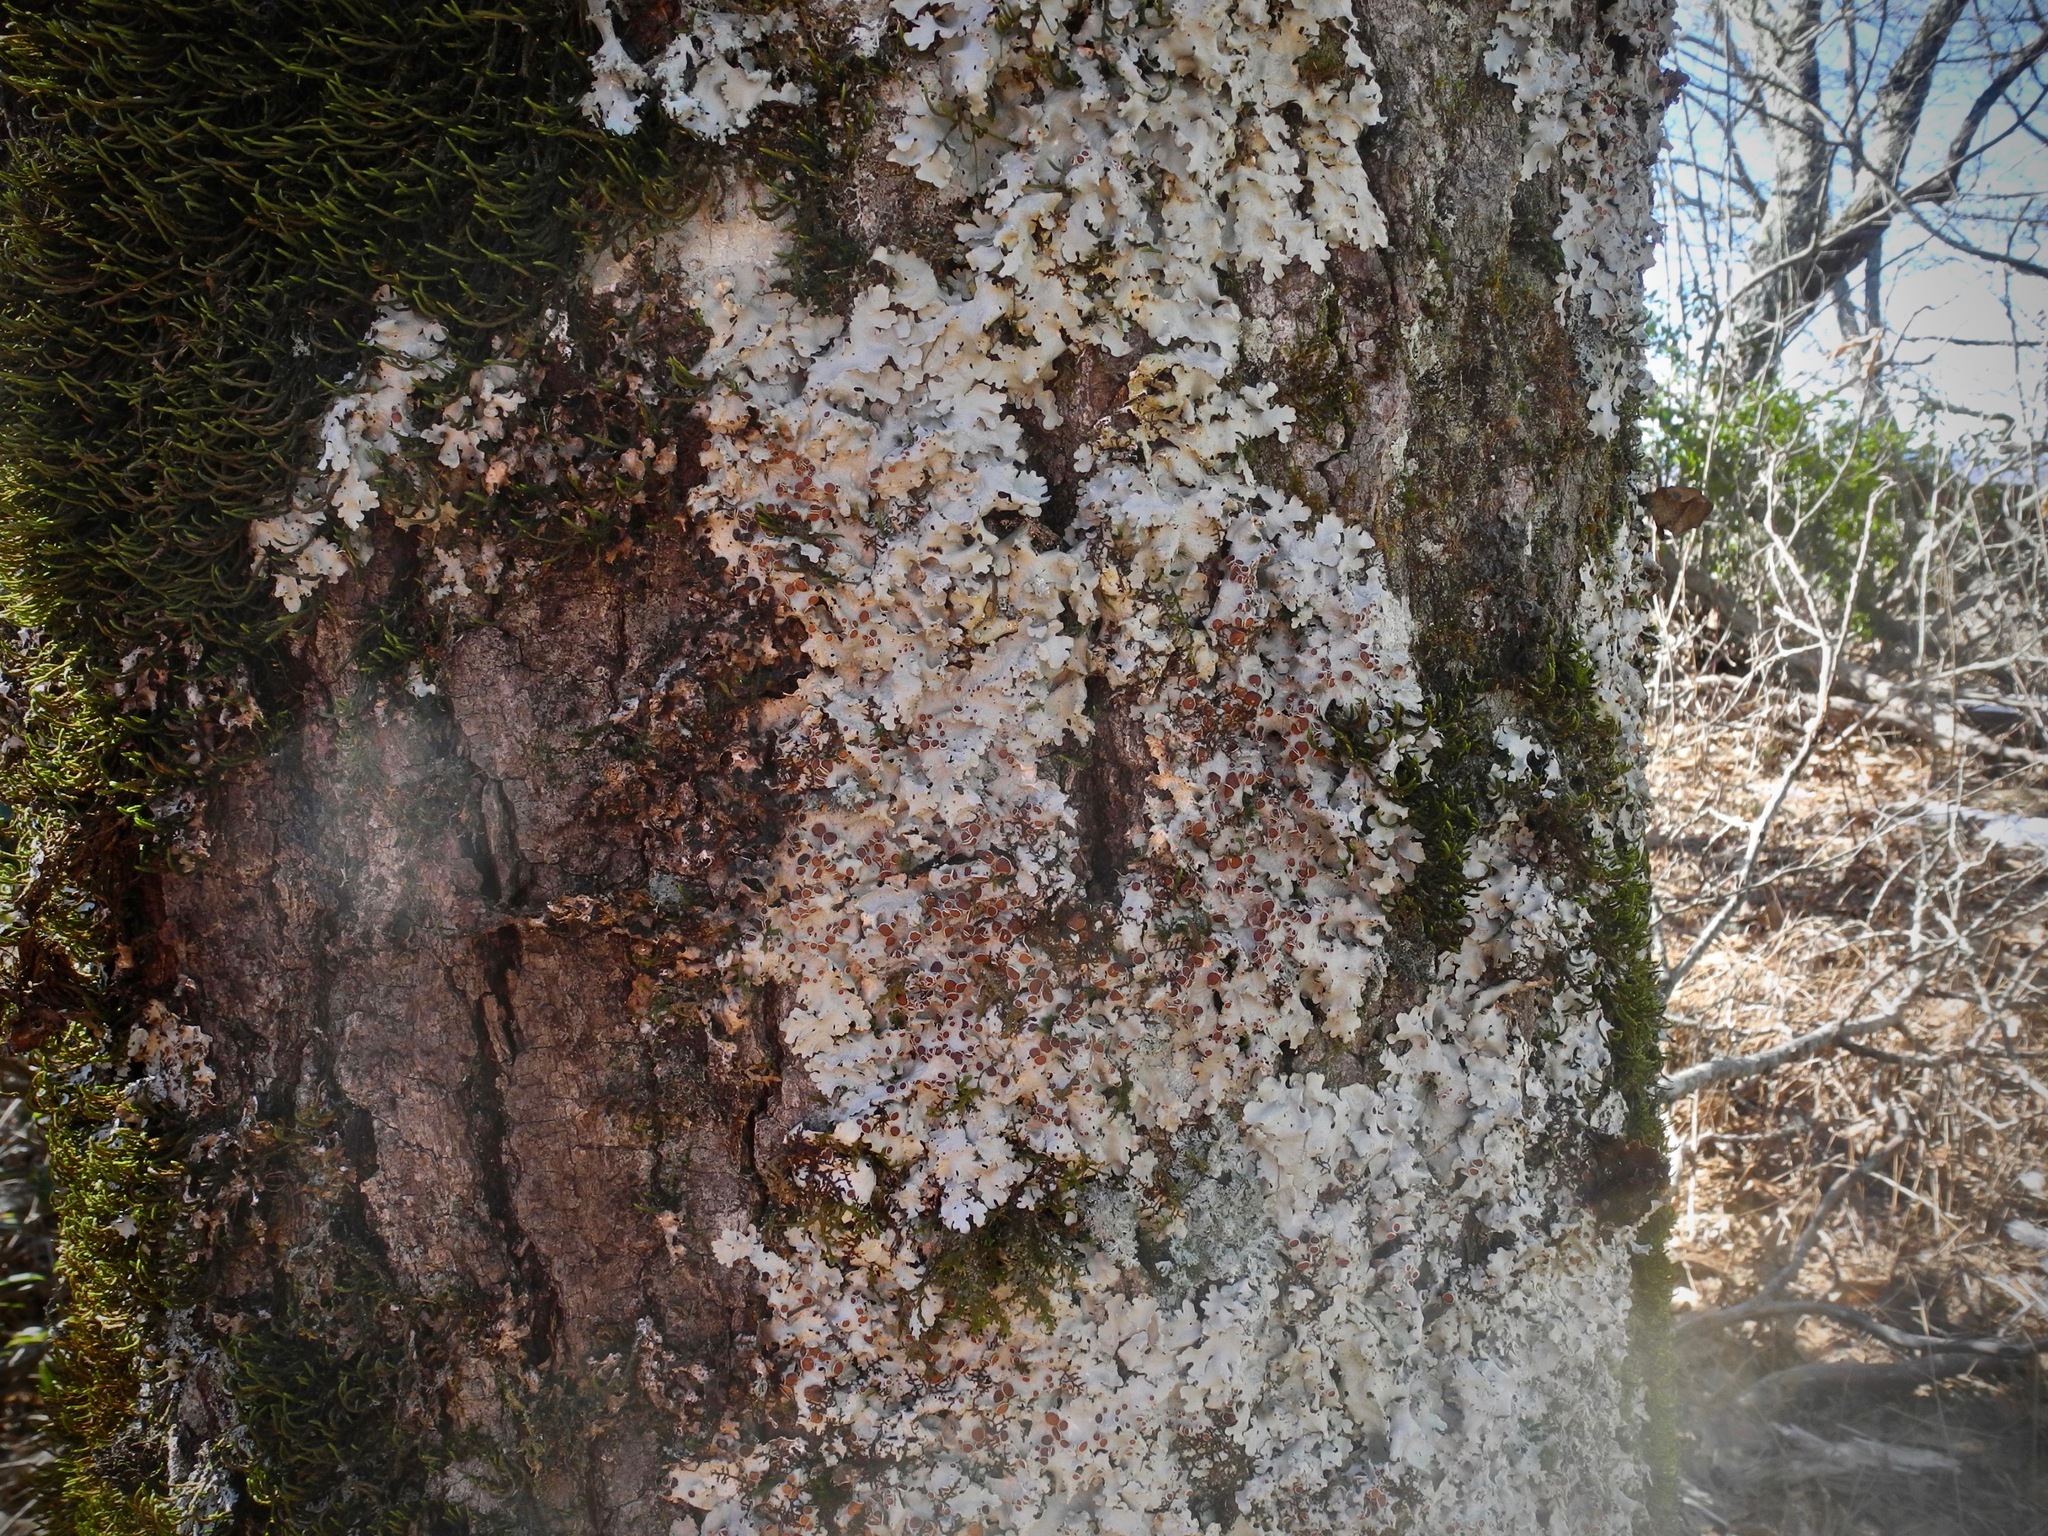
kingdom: Fungi
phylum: Ascomycota
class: Lecanoromycetes
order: Peltigerales
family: Lobariaceae
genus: Ricasolia
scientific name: Ricasolia quercizans
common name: Smooth lungwort
